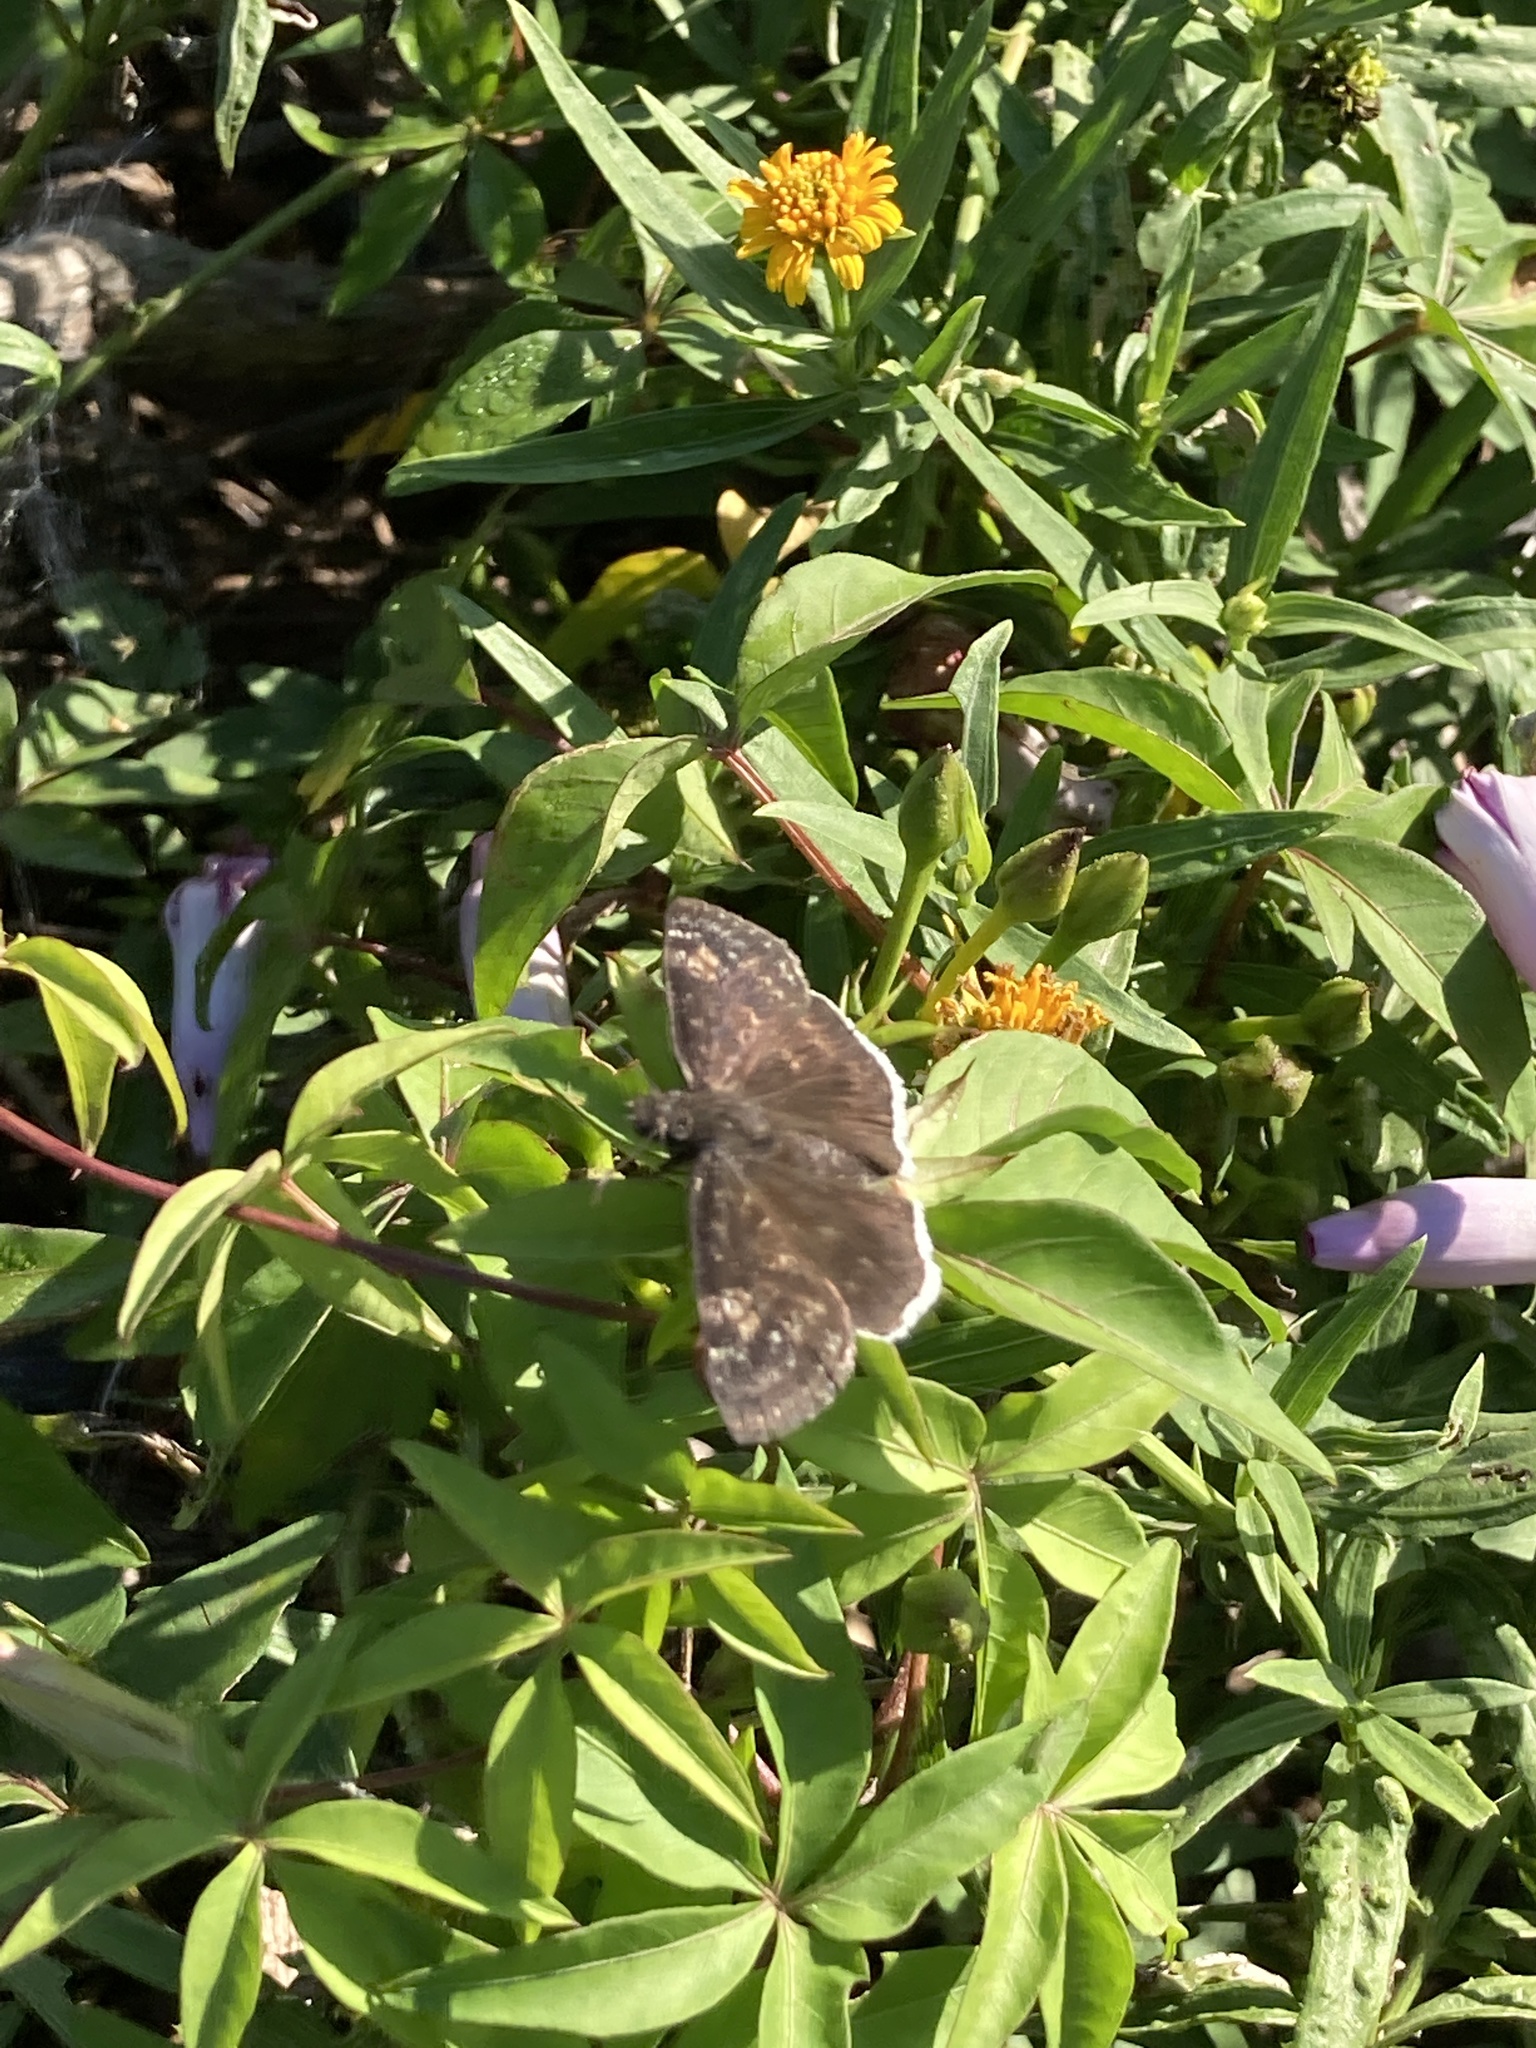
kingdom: Animalia
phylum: Arthropoda
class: Insecta
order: Lepidoptera
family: Hesperiidae
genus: Erynnis
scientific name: Erynnis funeralis
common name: Funereal duskywing
